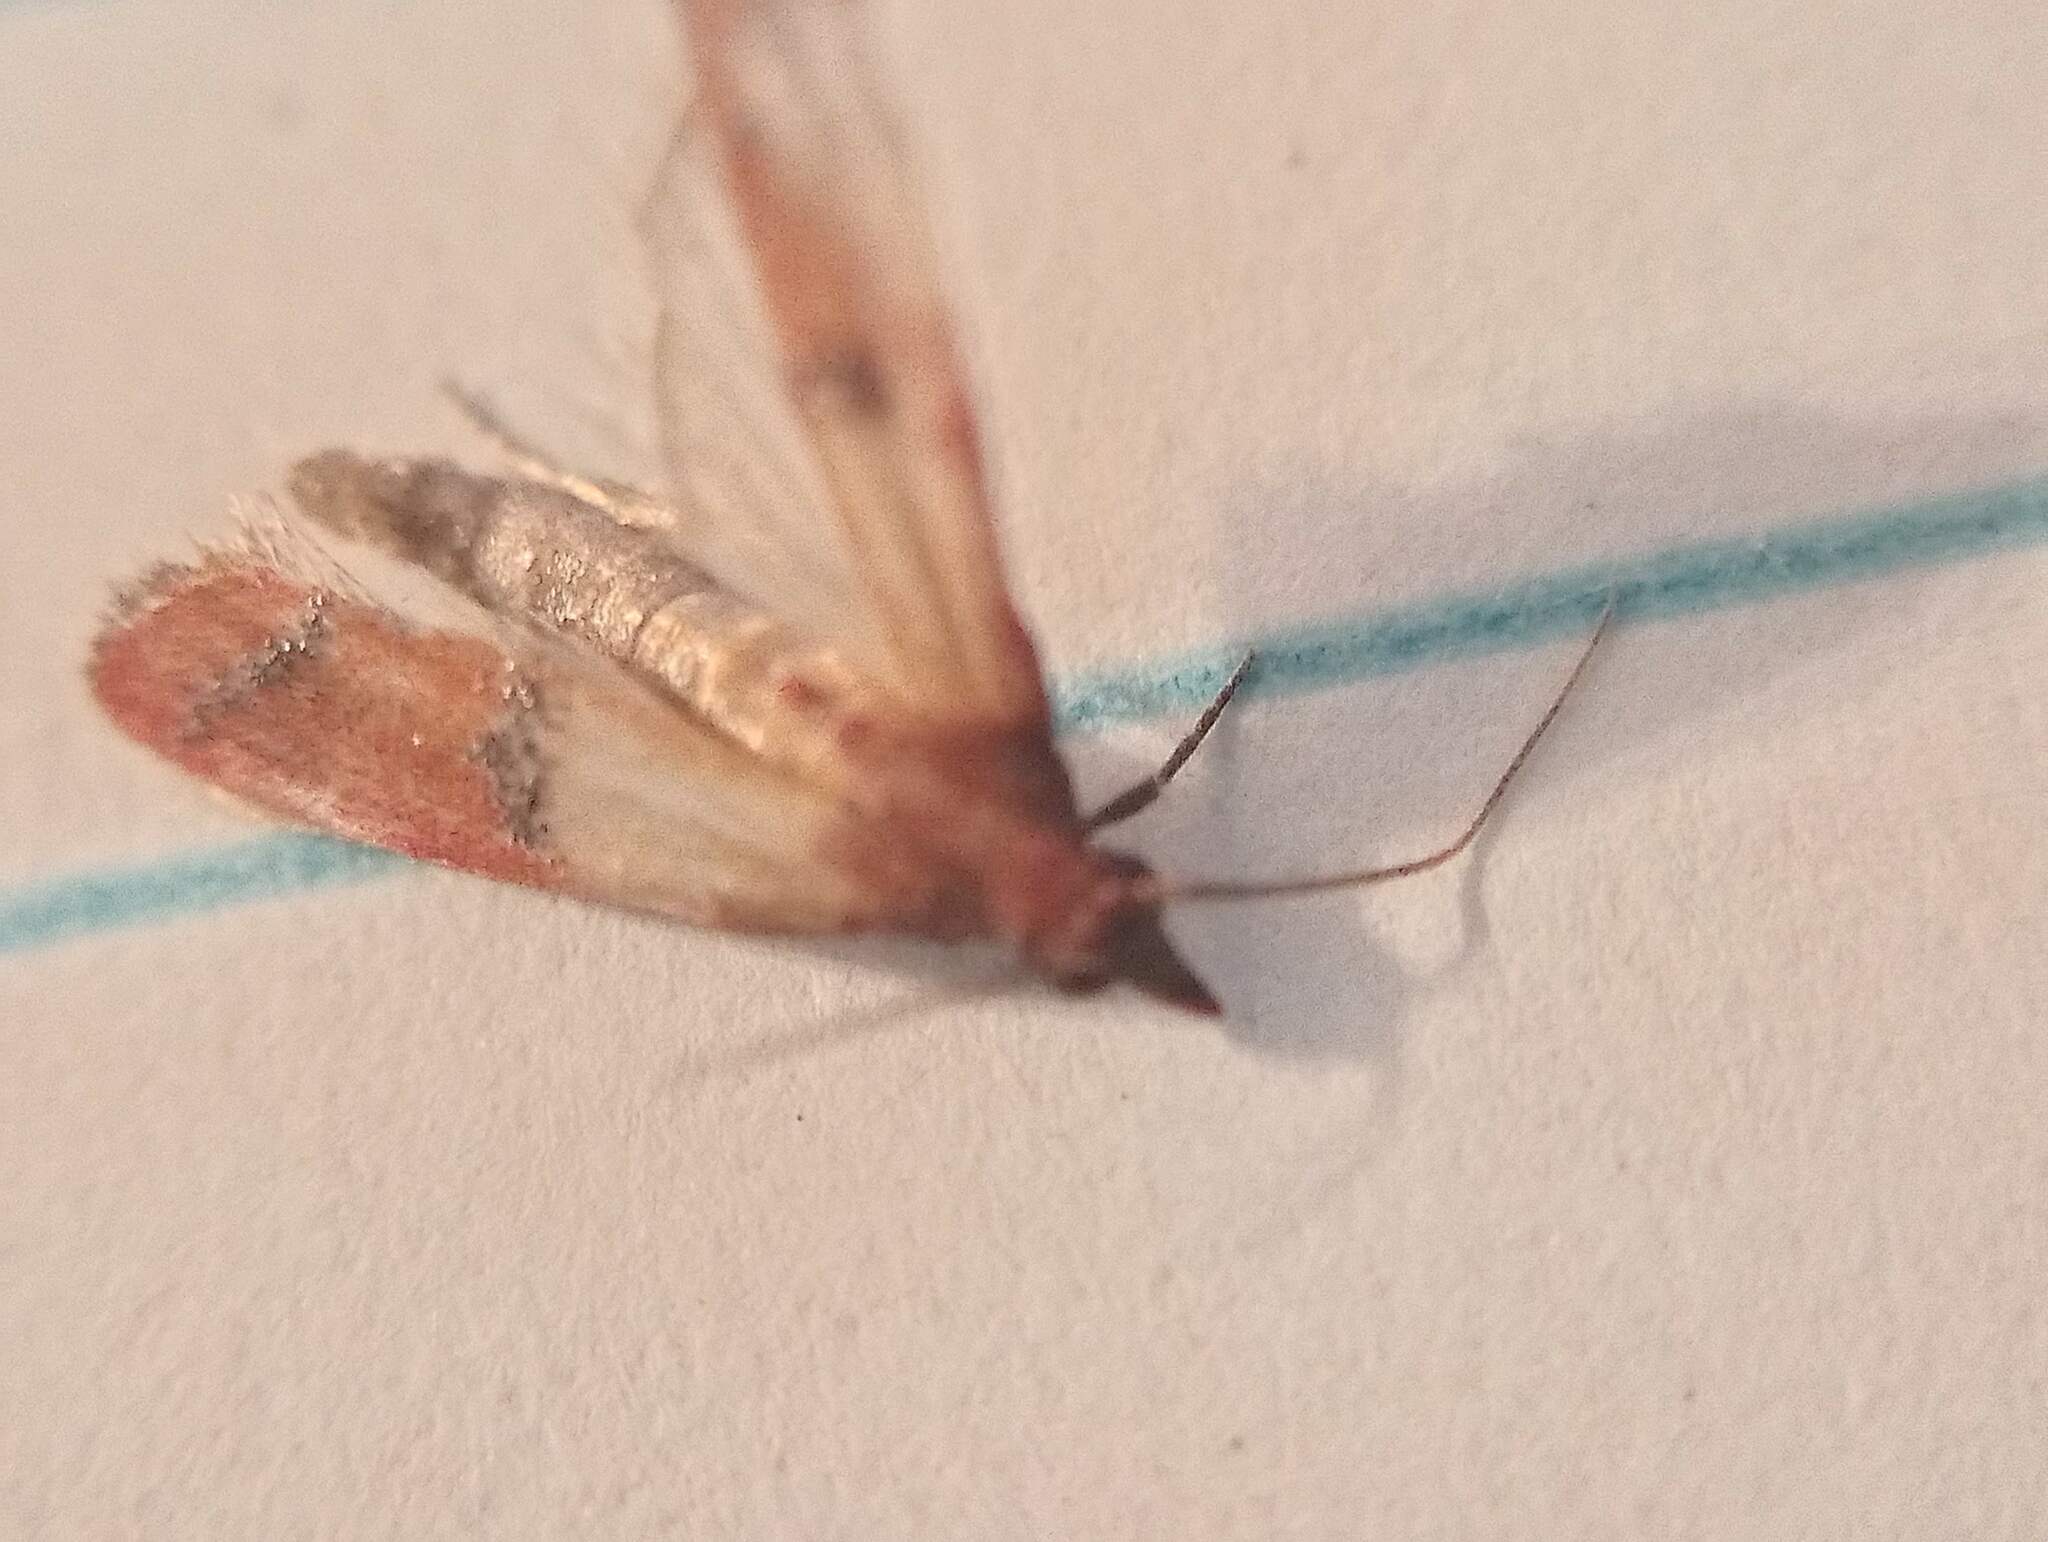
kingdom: Animalia
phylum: Arthropoda
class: Insecta
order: Lepidoptera
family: Pyralidae
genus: Plodia
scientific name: Plodia interpunctella
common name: Indian meal moth
